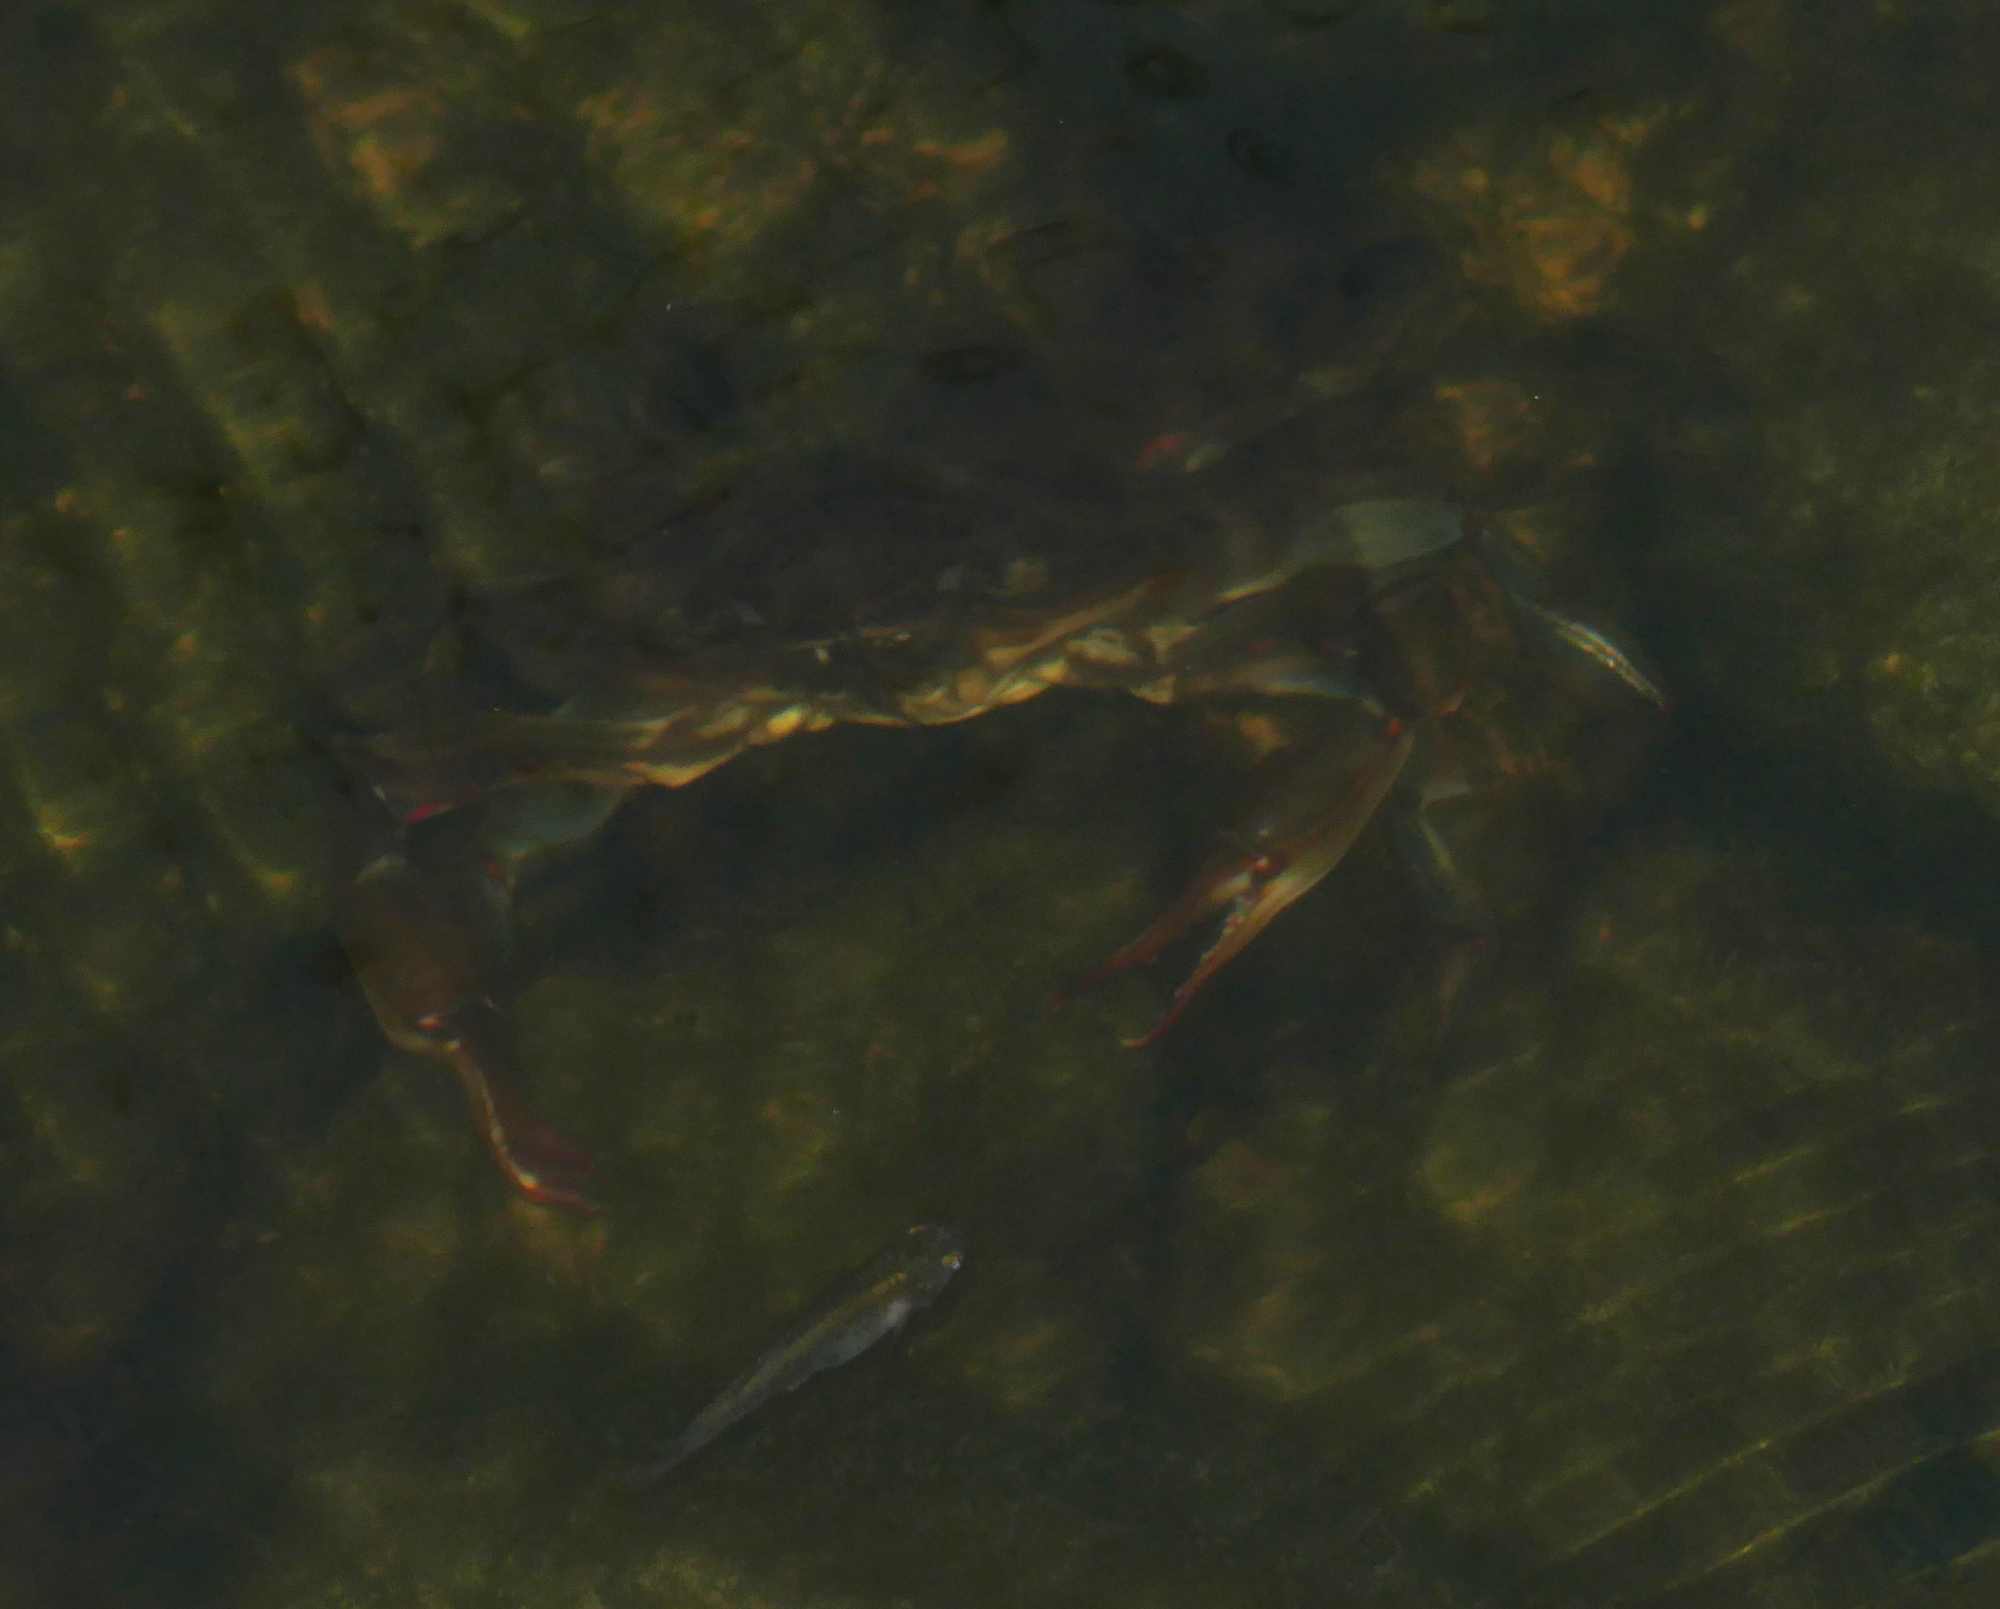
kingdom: Animalia
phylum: Arthropoda
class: Malacostraca
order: Decapoda
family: Portunidae
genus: Callinectes
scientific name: Callinectes sapidus
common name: Blue crab
